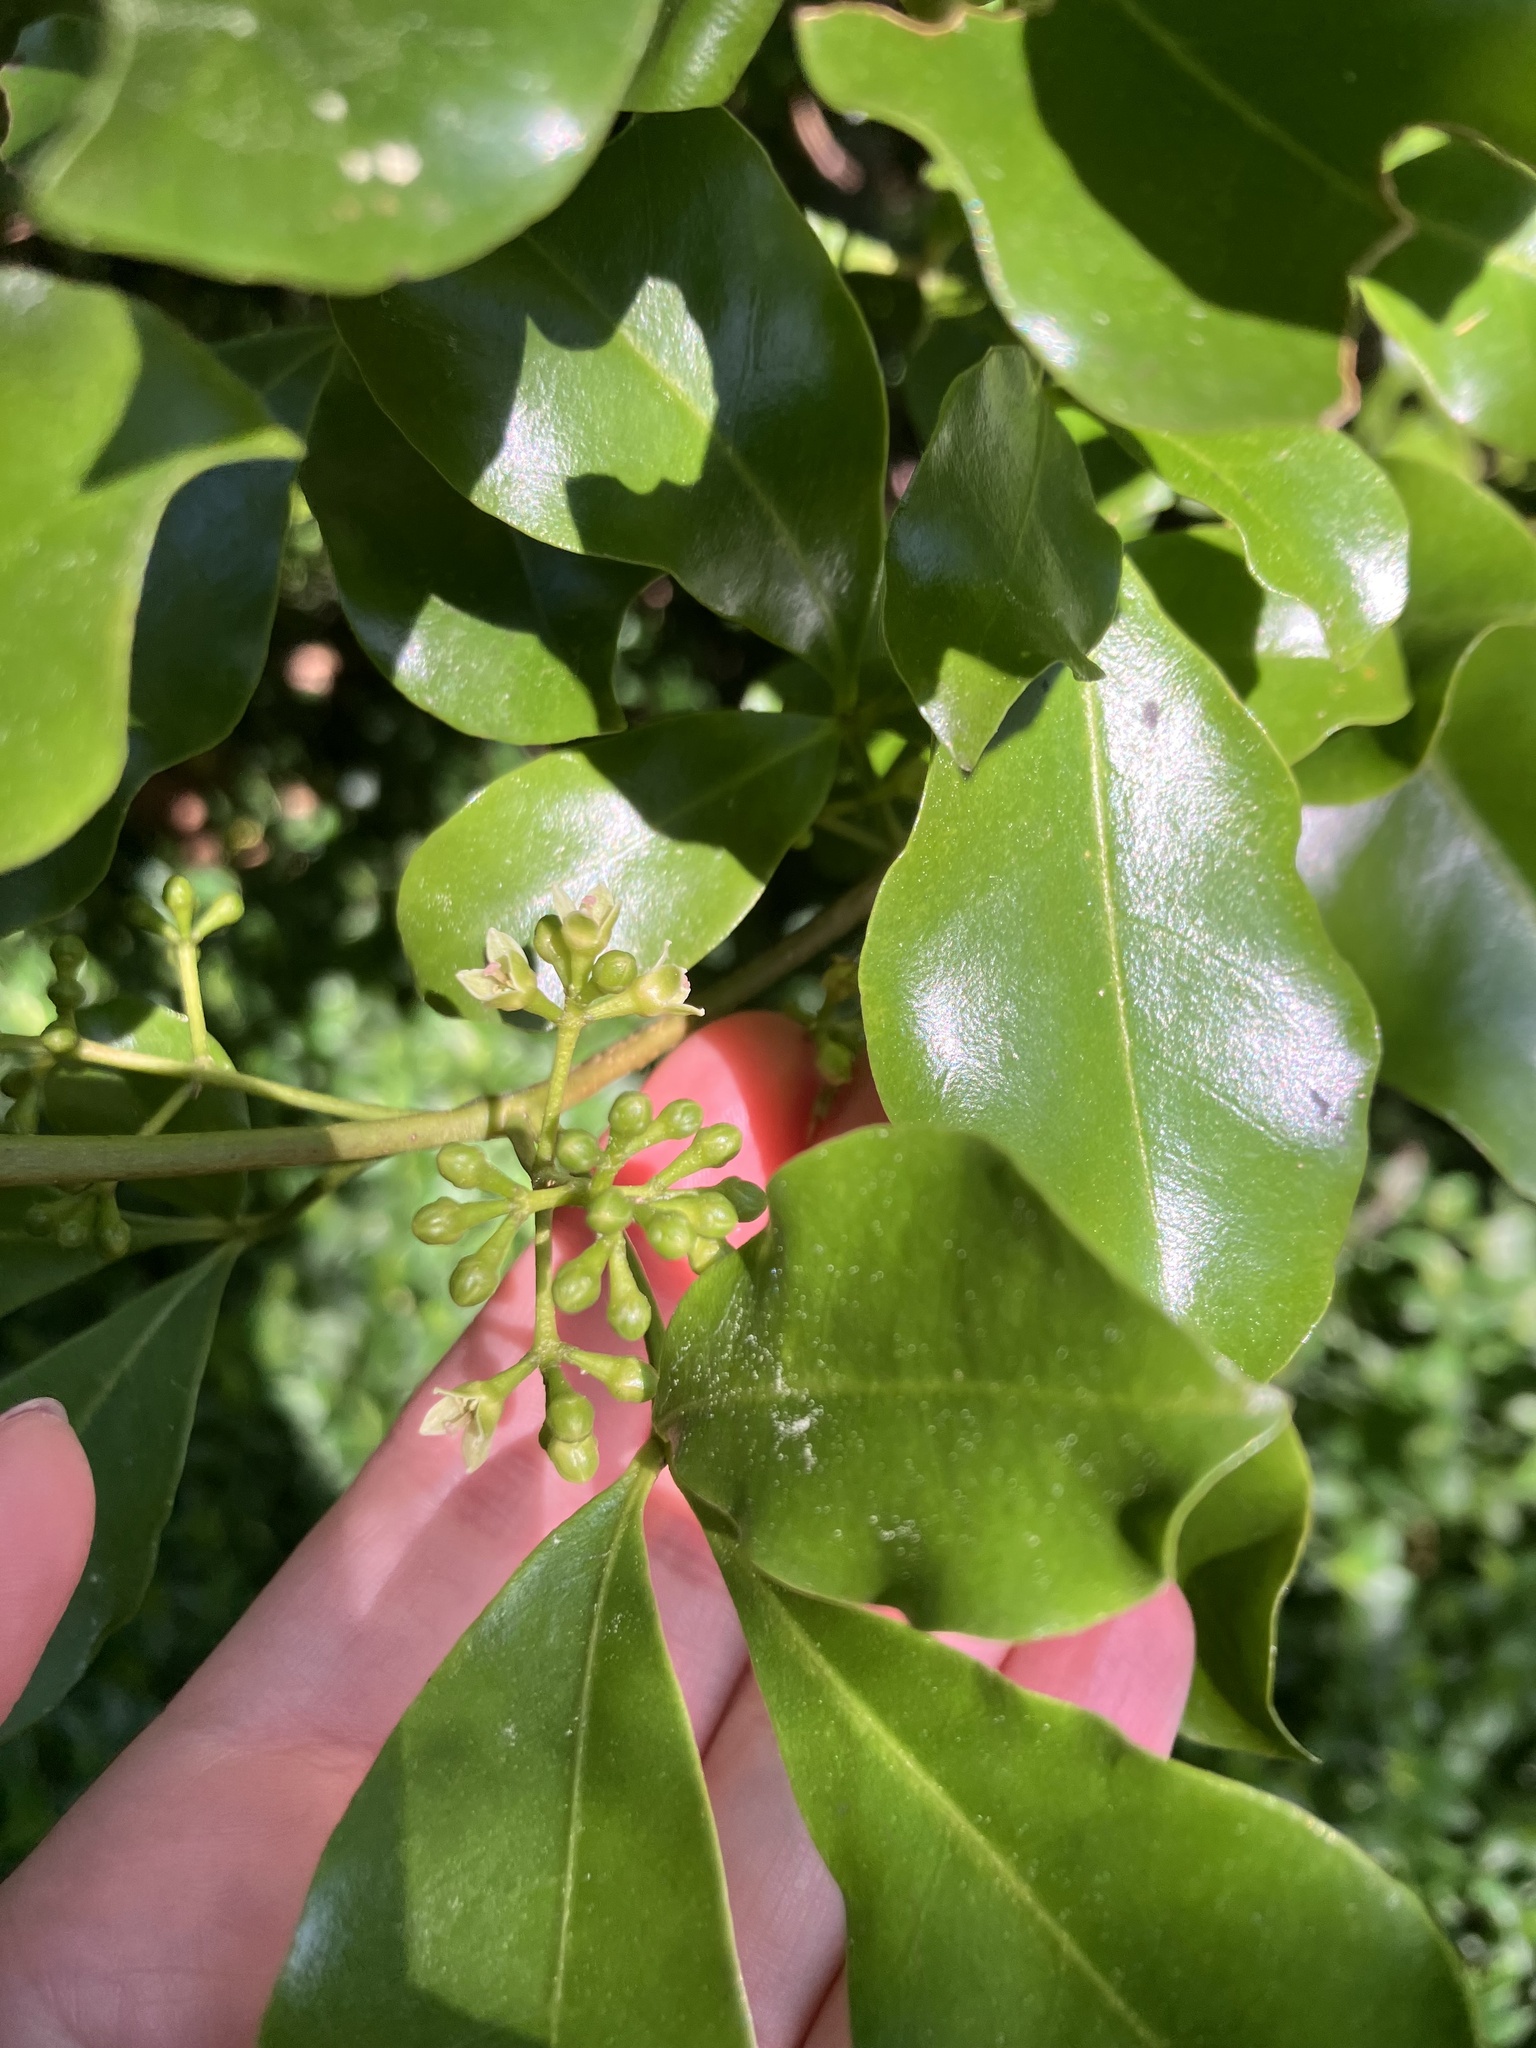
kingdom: Plantae
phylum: Tracheophyta
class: Magnoliopsida
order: Sapindales
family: Rutaceae
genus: Melicope
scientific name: Melicope ternata
